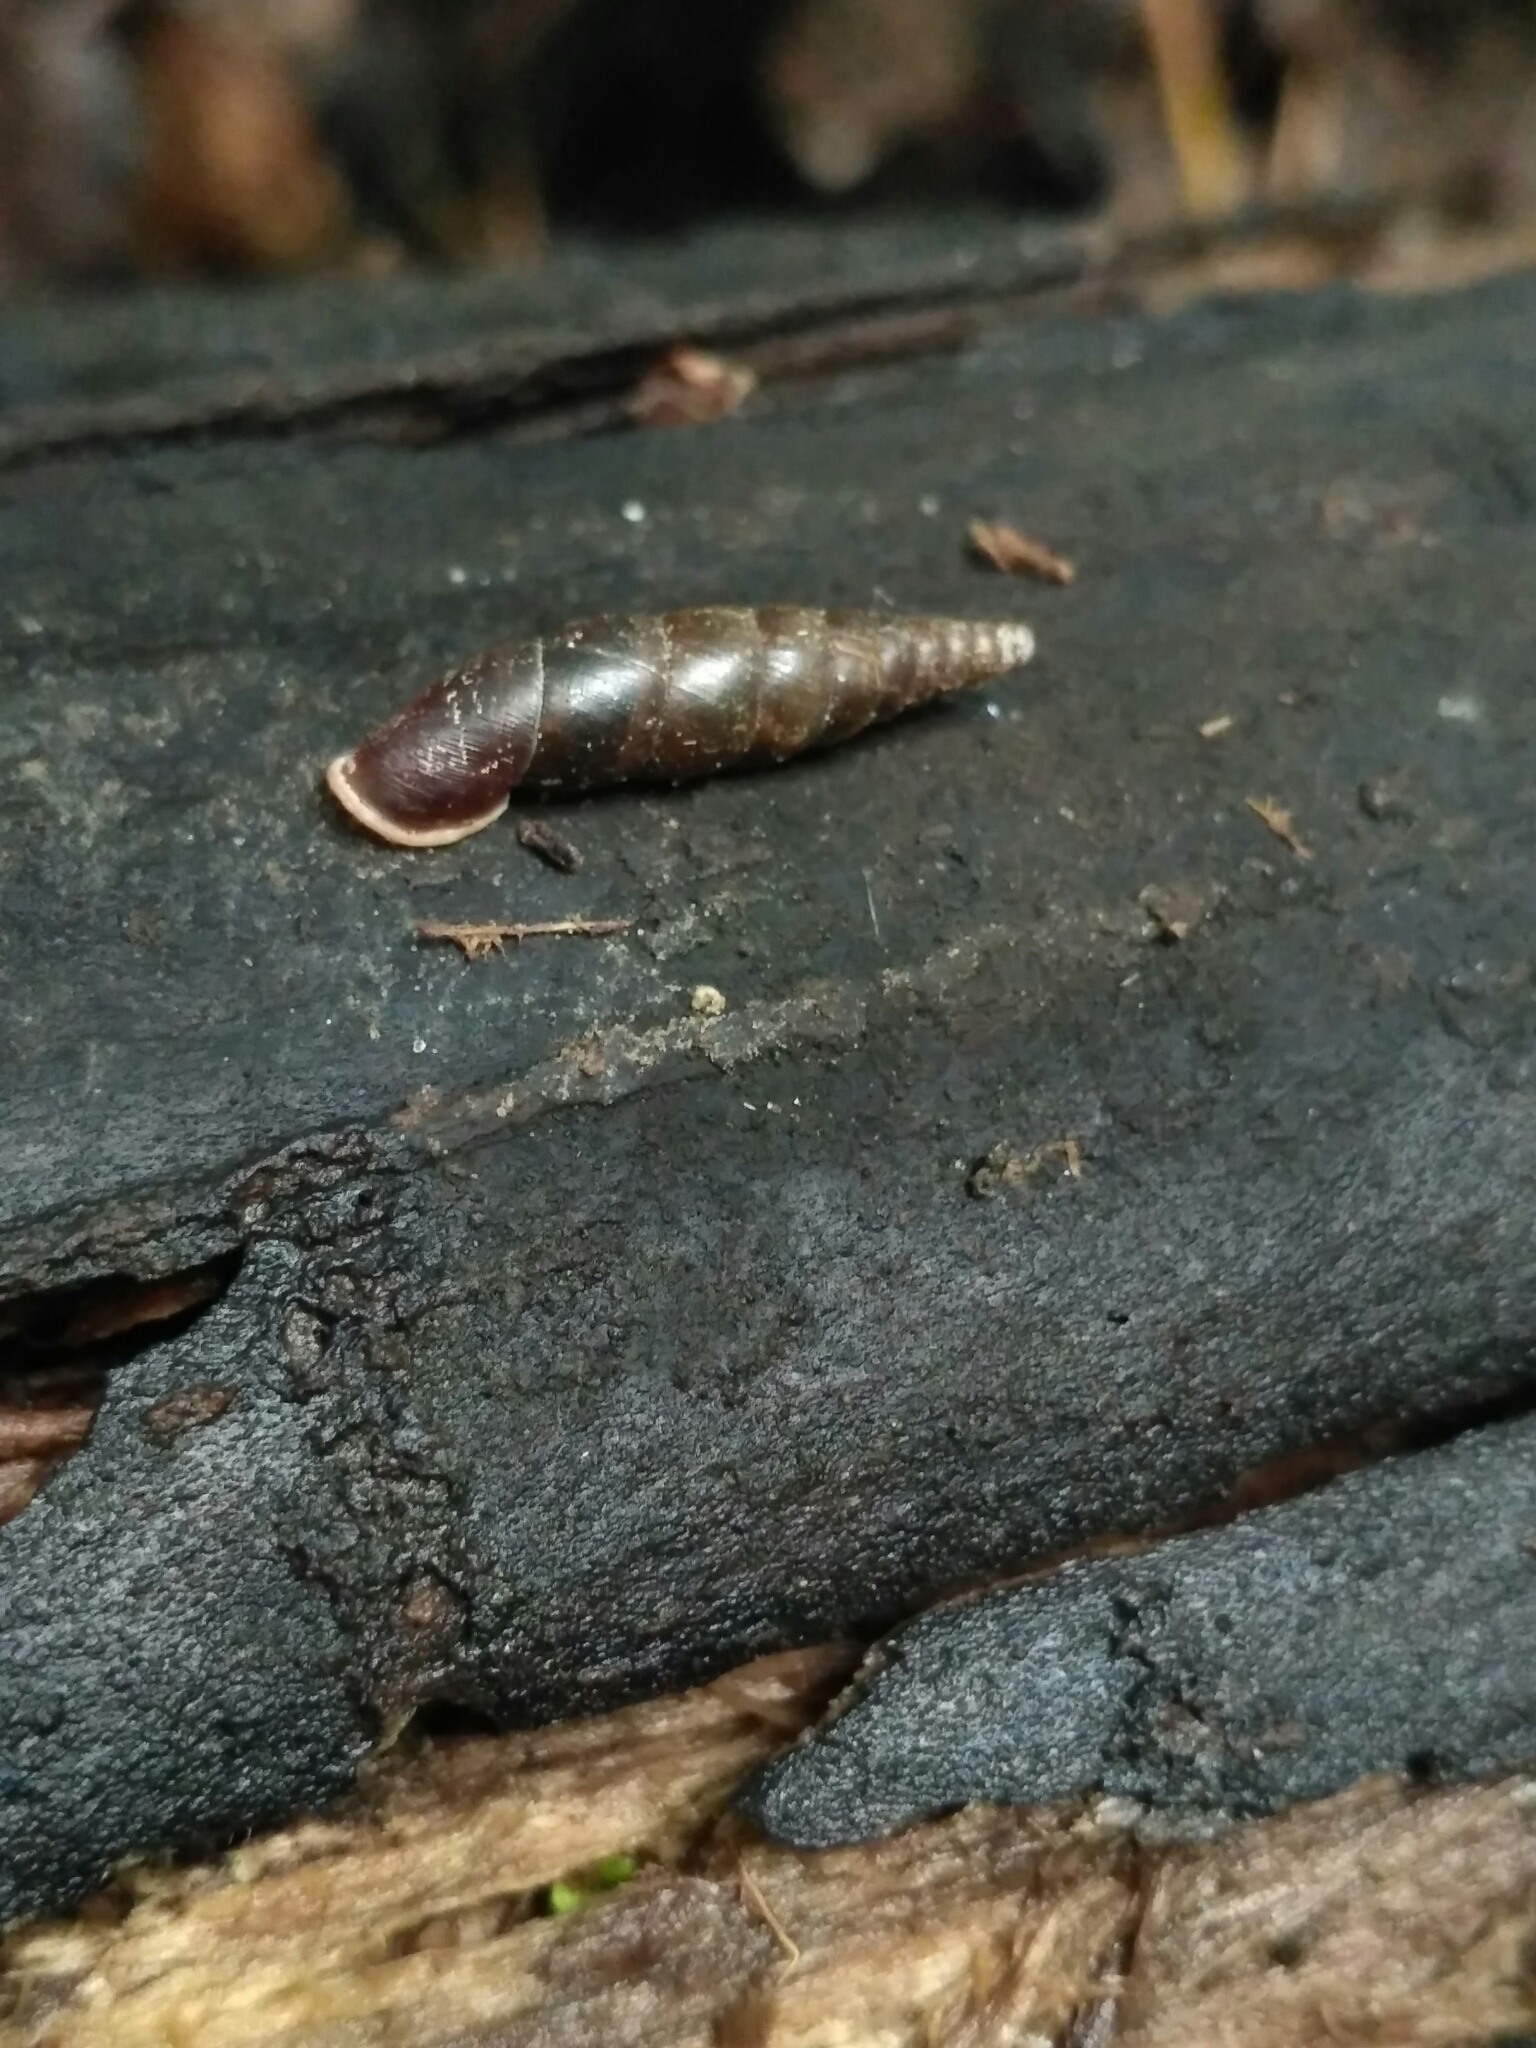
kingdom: Animalia
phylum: Mollusca
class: Gastropoda
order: Stylommatophora
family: Clausiliidae
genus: Cochlodina
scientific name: Cochlodina laminata
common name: Plaited door snail
